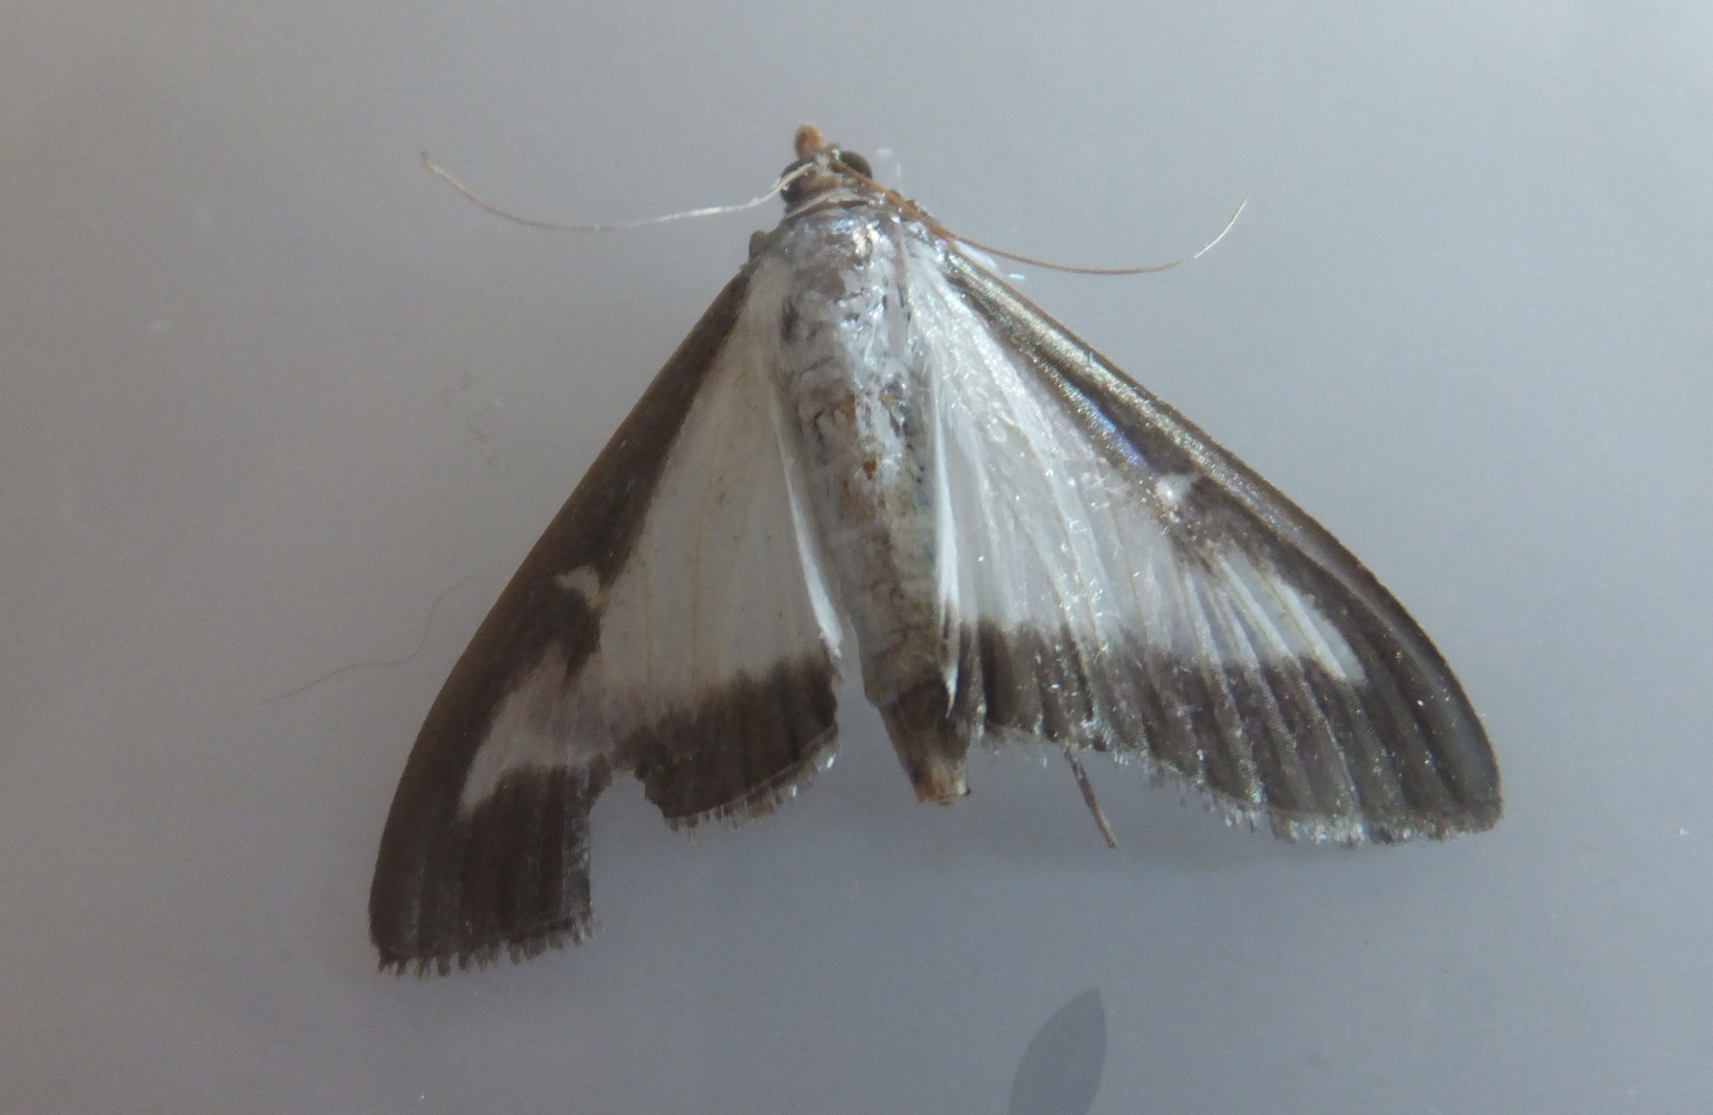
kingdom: Animalia
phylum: Arthropoda
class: Insecta
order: Lepidoptera
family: Crambidae
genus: Cydalima
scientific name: Cydalima perspectalis
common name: Box tree moth
